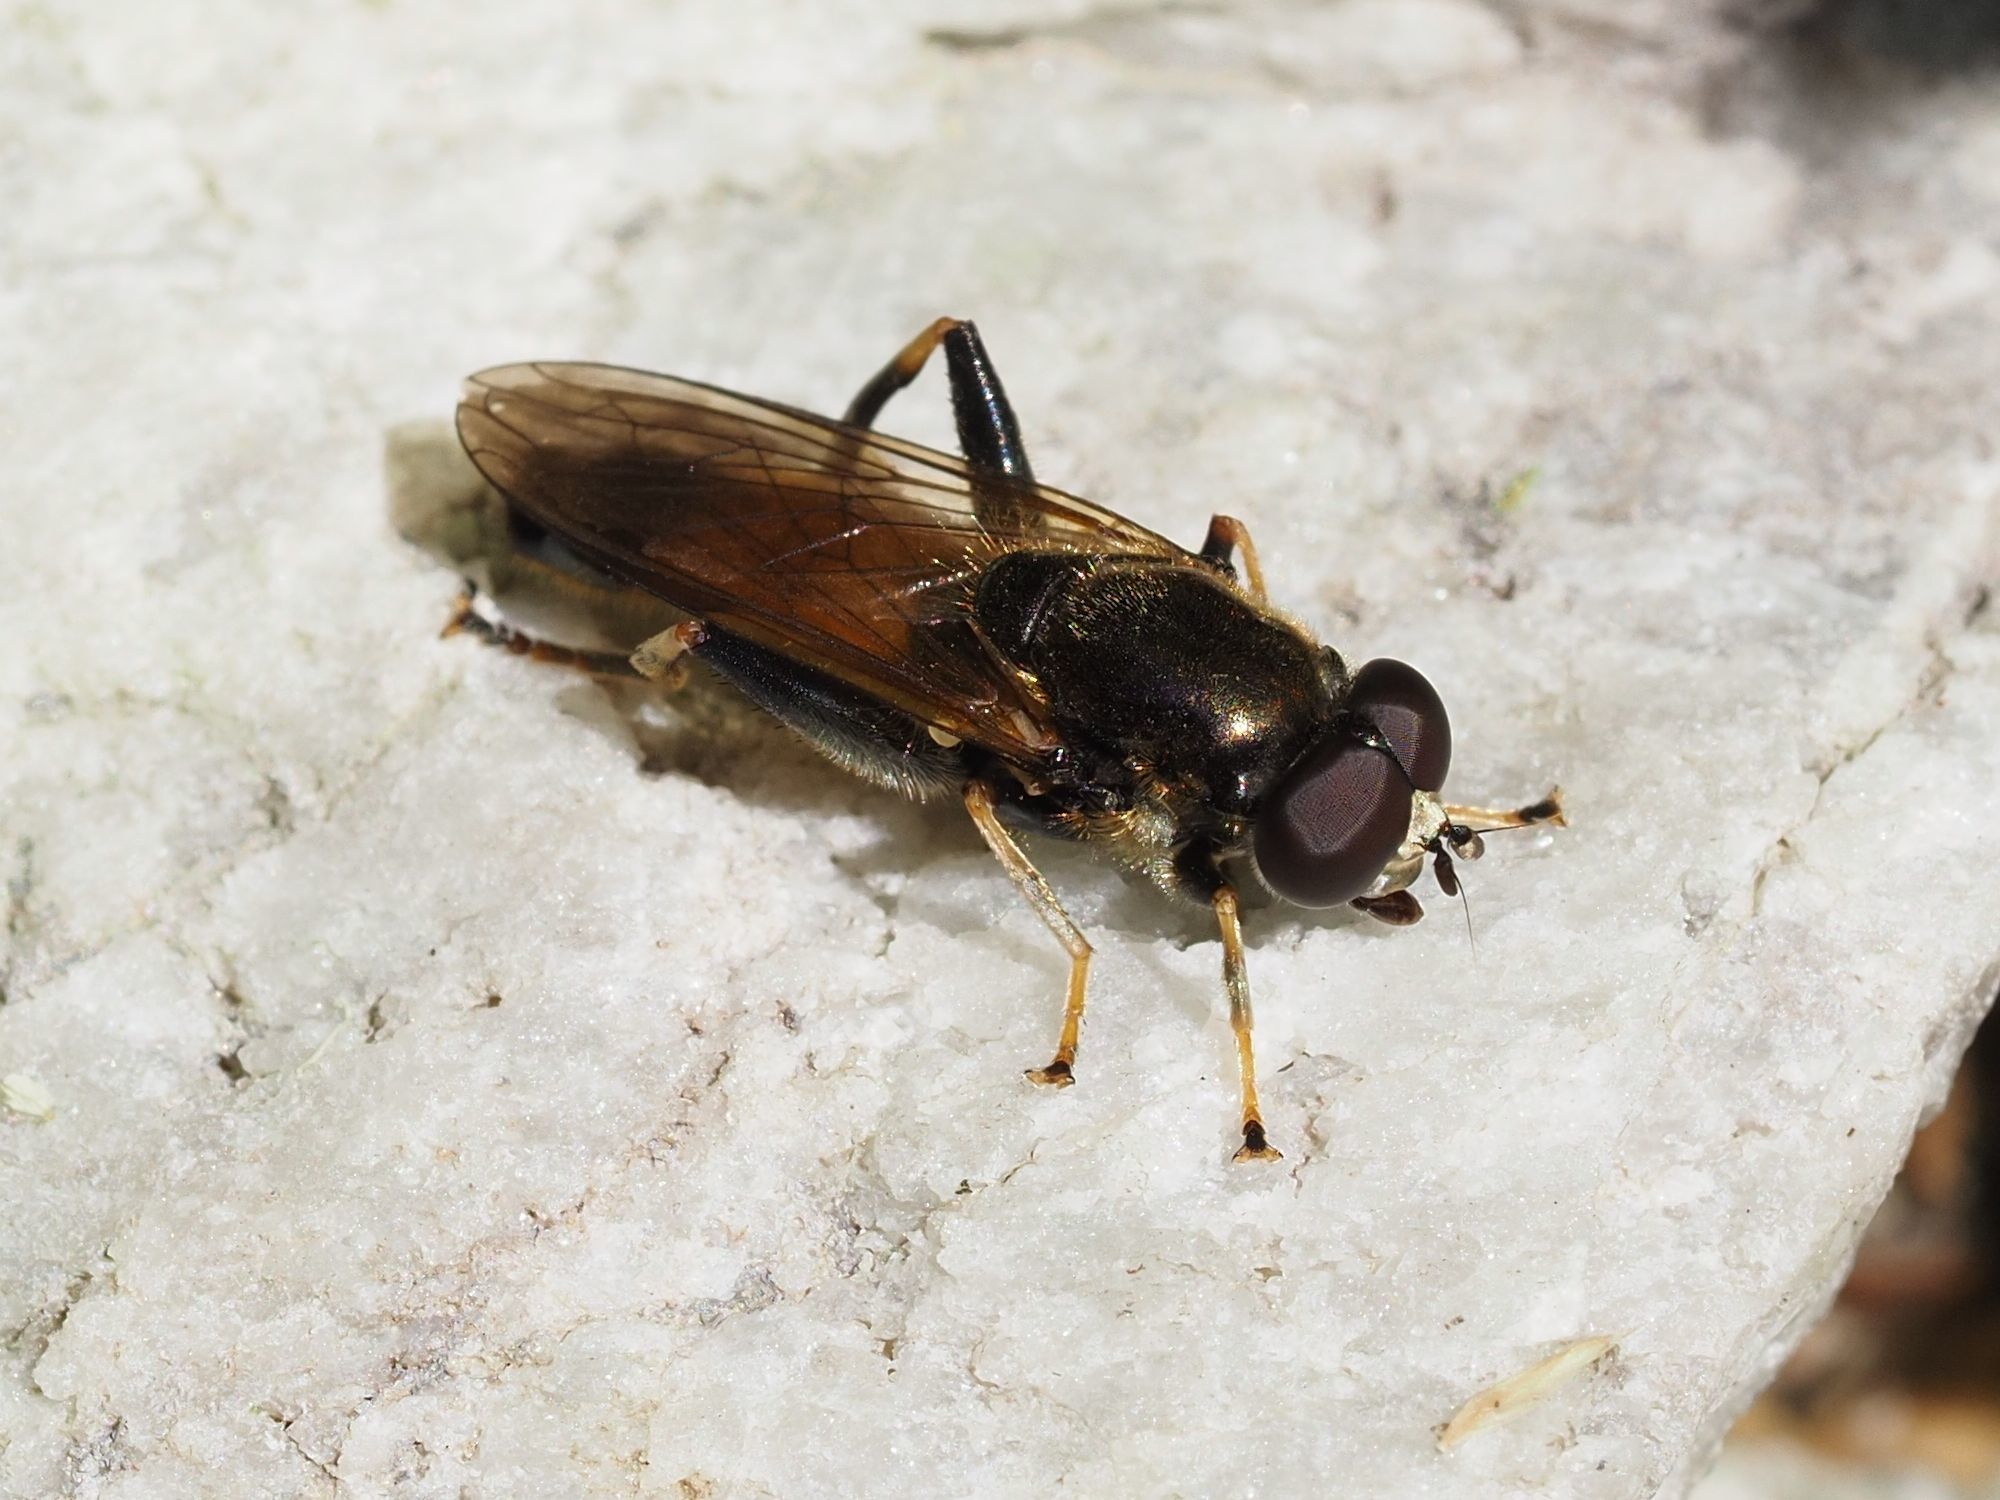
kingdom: Animalia
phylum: Arthropoda
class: Insecta
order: Diptera
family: Syrphidae
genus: Xylota
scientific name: Xylota segnis
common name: Brown-toed forest fly
